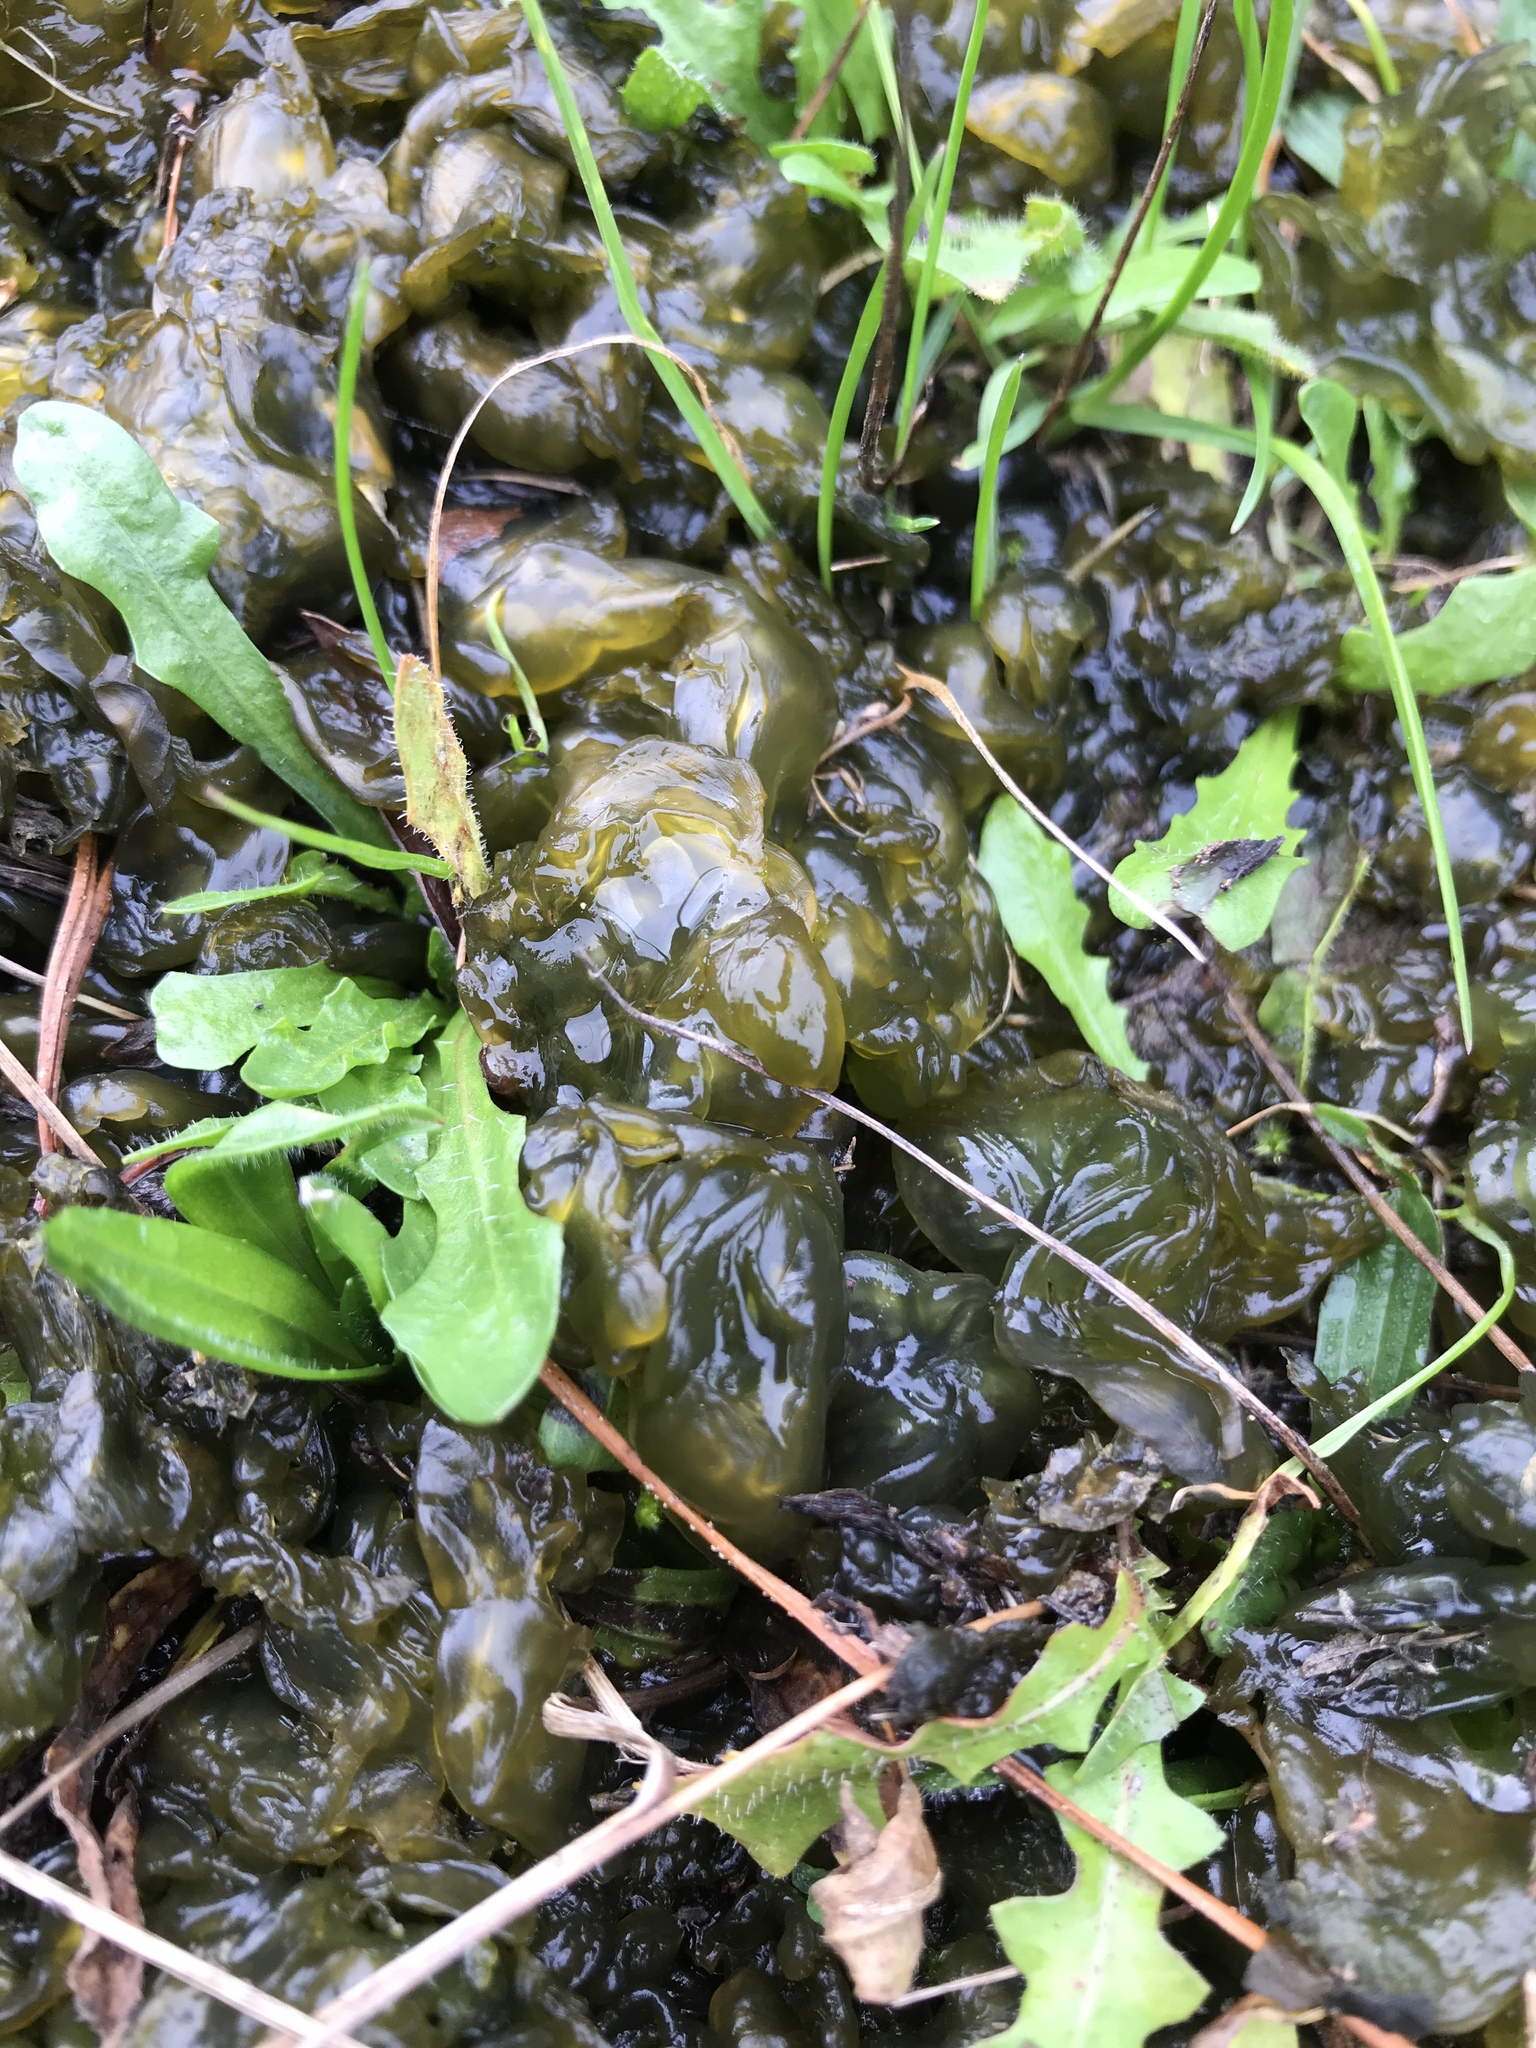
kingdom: Bacteria
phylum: Cyanobacteria
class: Cyanobacteriia
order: Cyanobacteriales
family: Nostocaceae
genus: Nostoc
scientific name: Nostoc commune
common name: Star jelly
